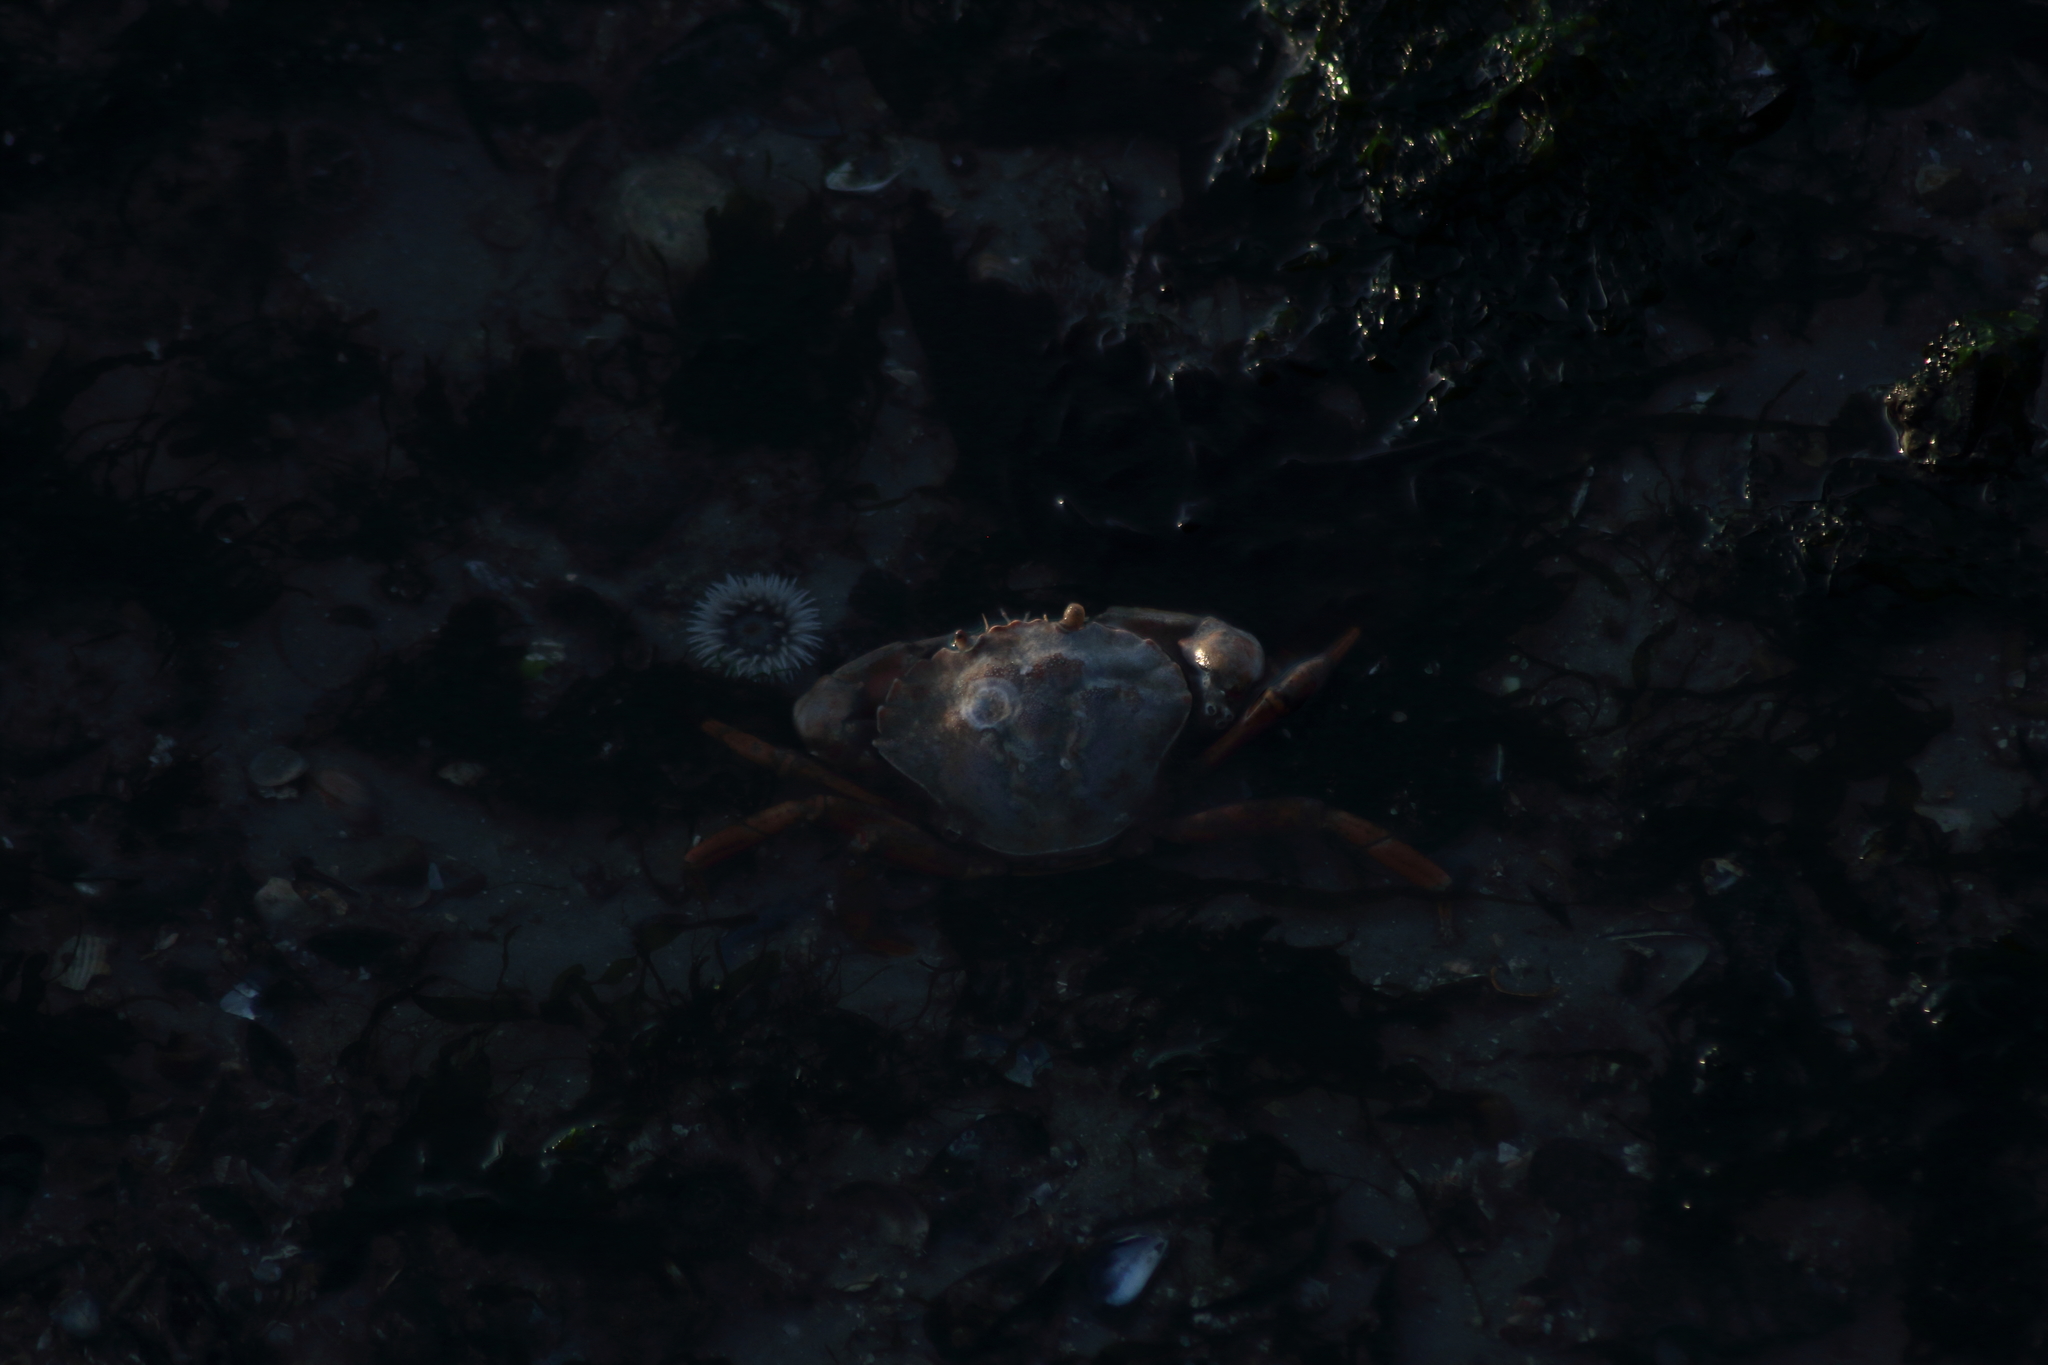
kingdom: Animalia
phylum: Arthropoda
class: Malacostraca
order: Decapoda
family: Carcinidae
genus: Carcinus
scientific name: Carcinus maenas
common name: European green crab
